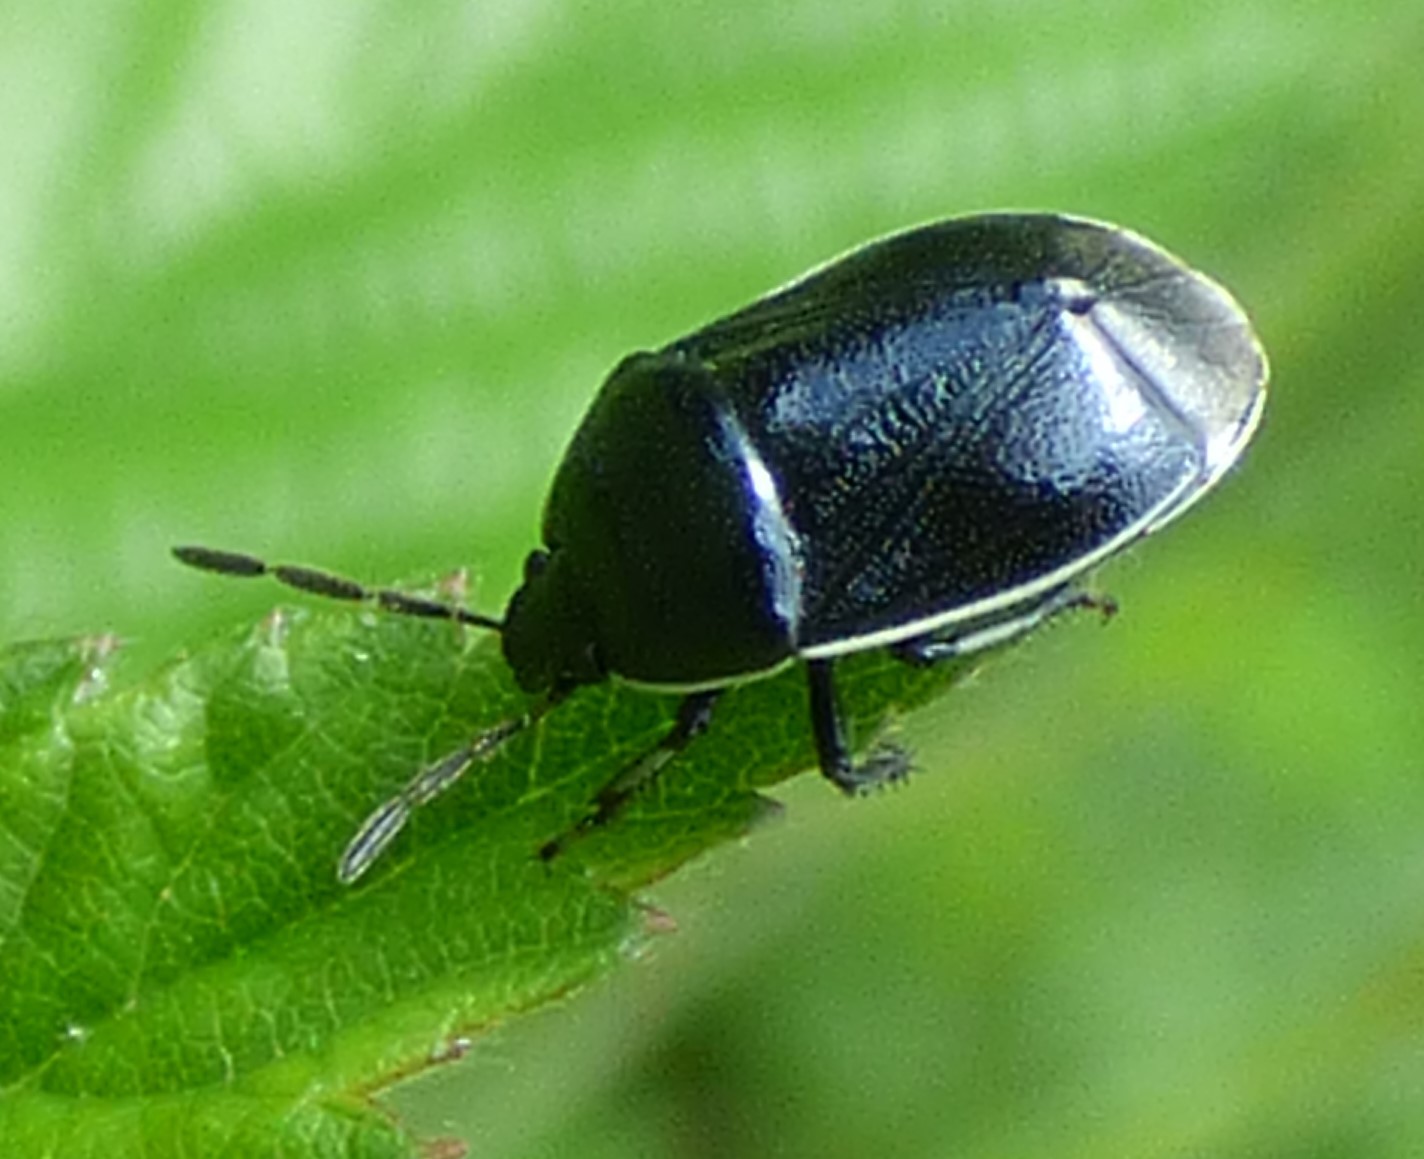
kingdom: Animalia
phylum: Arthropoda
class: Insecta
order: Hemiptera
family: Cydnidae
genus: Sehirus
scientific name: Sehirus cinctus
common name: White-margined burrower bug
